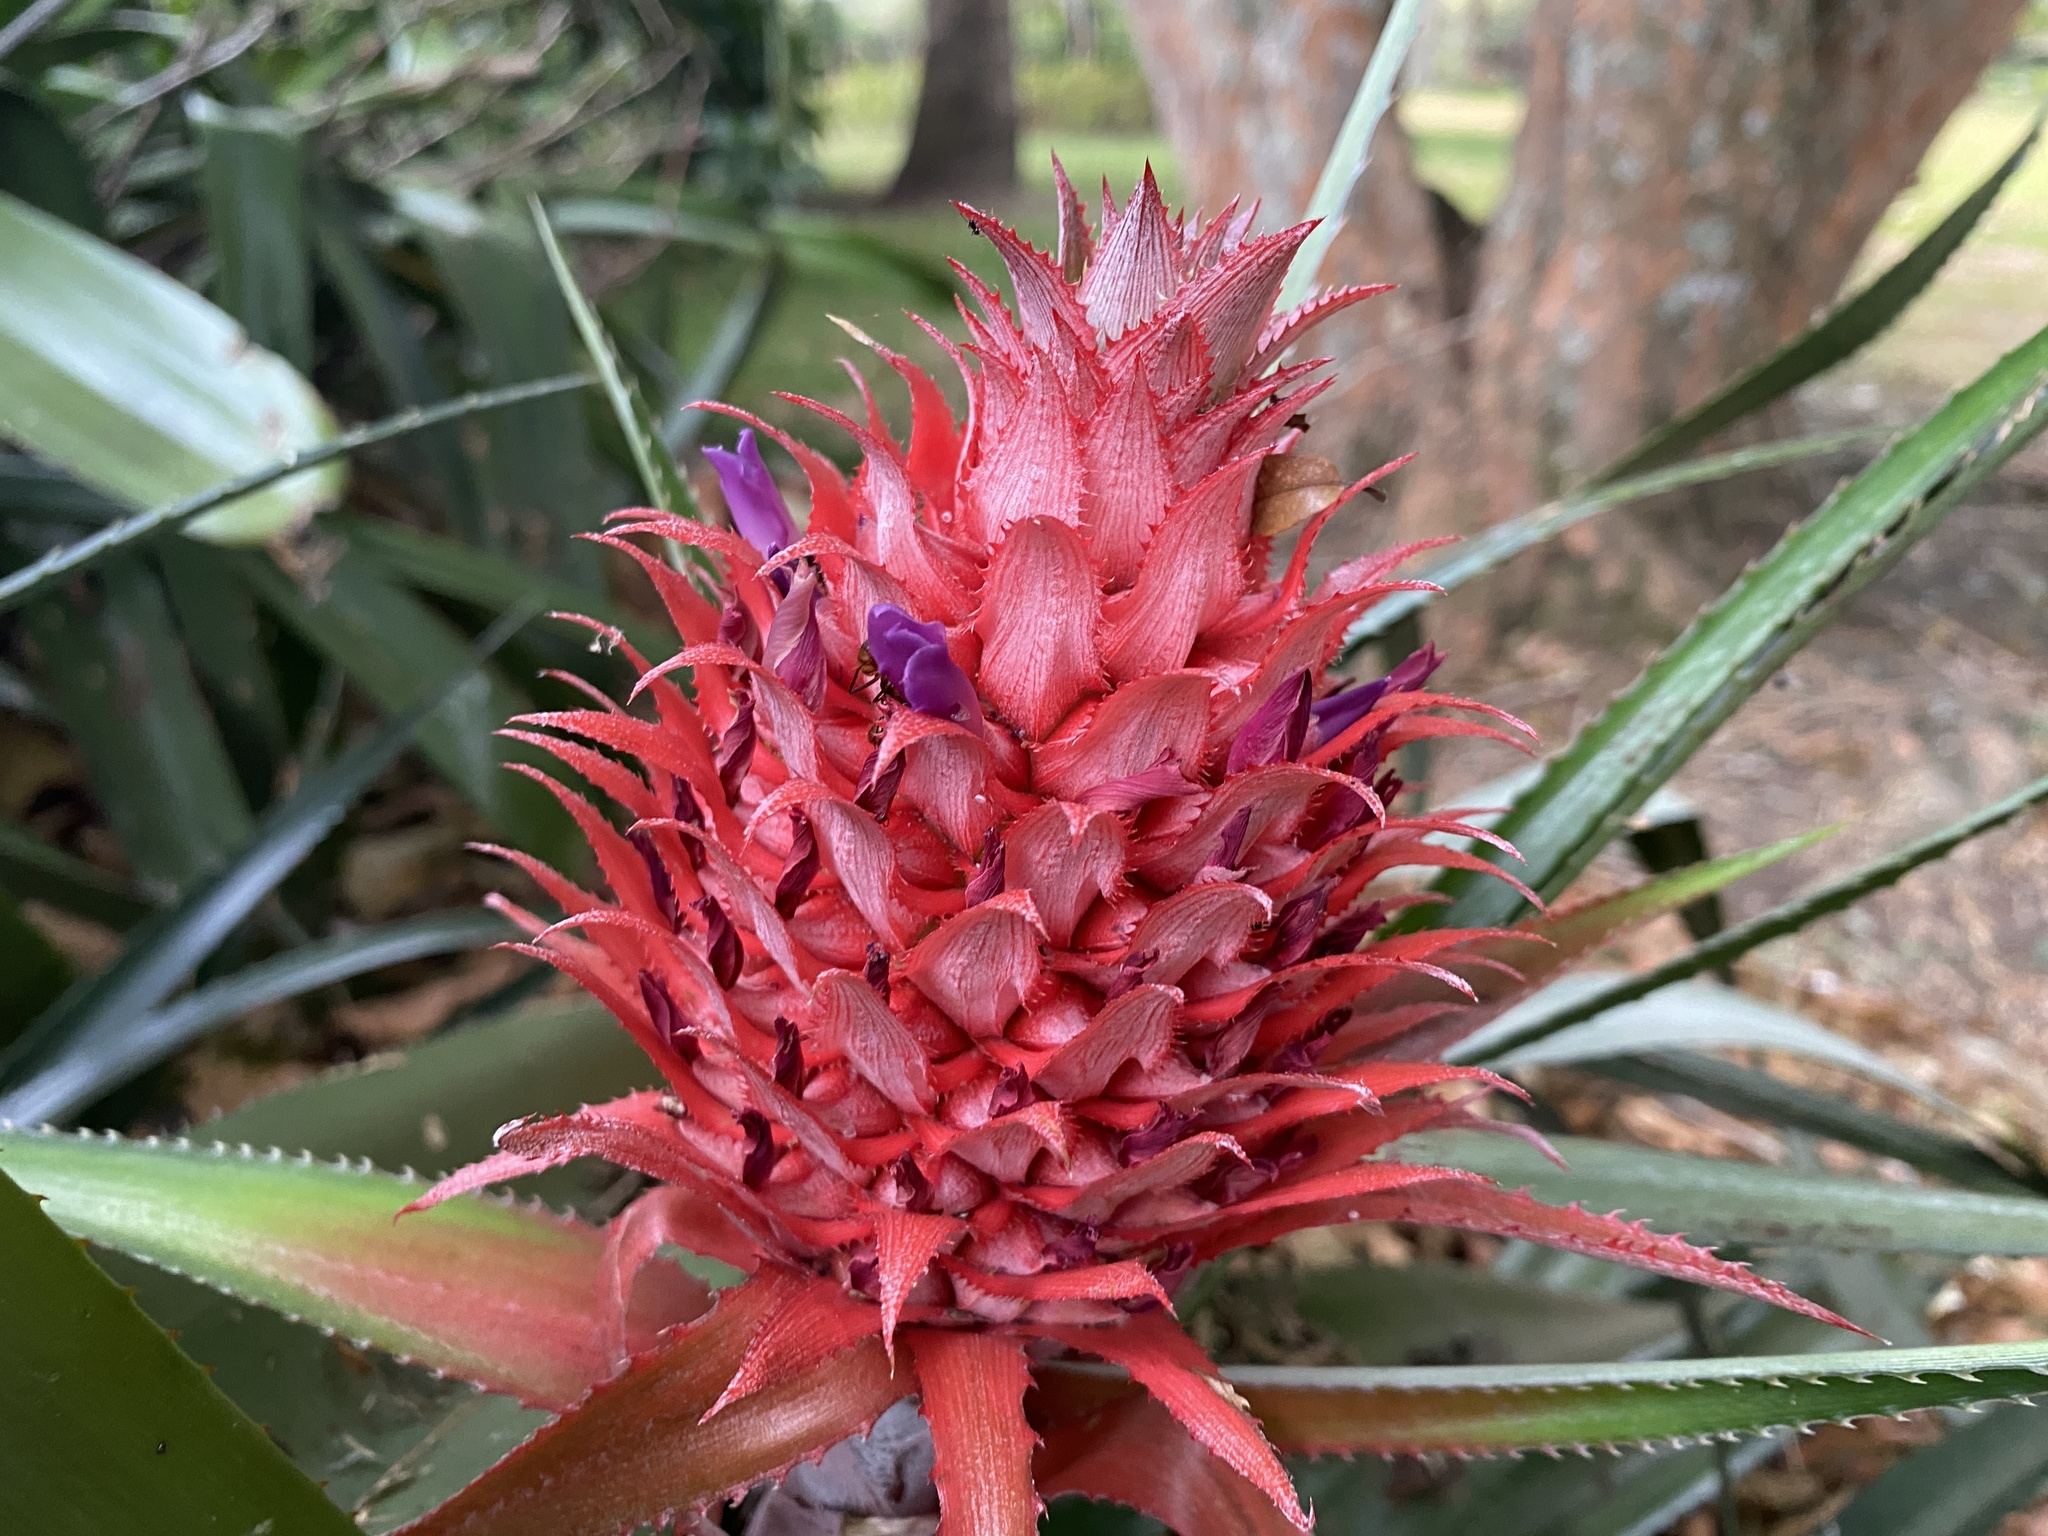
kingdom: Plantae
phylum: Tracheophyta
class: Liliopsida
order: Poales
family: Bromeliaceae
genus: Ananas
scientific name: Ananas comosus
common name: Pineapple
